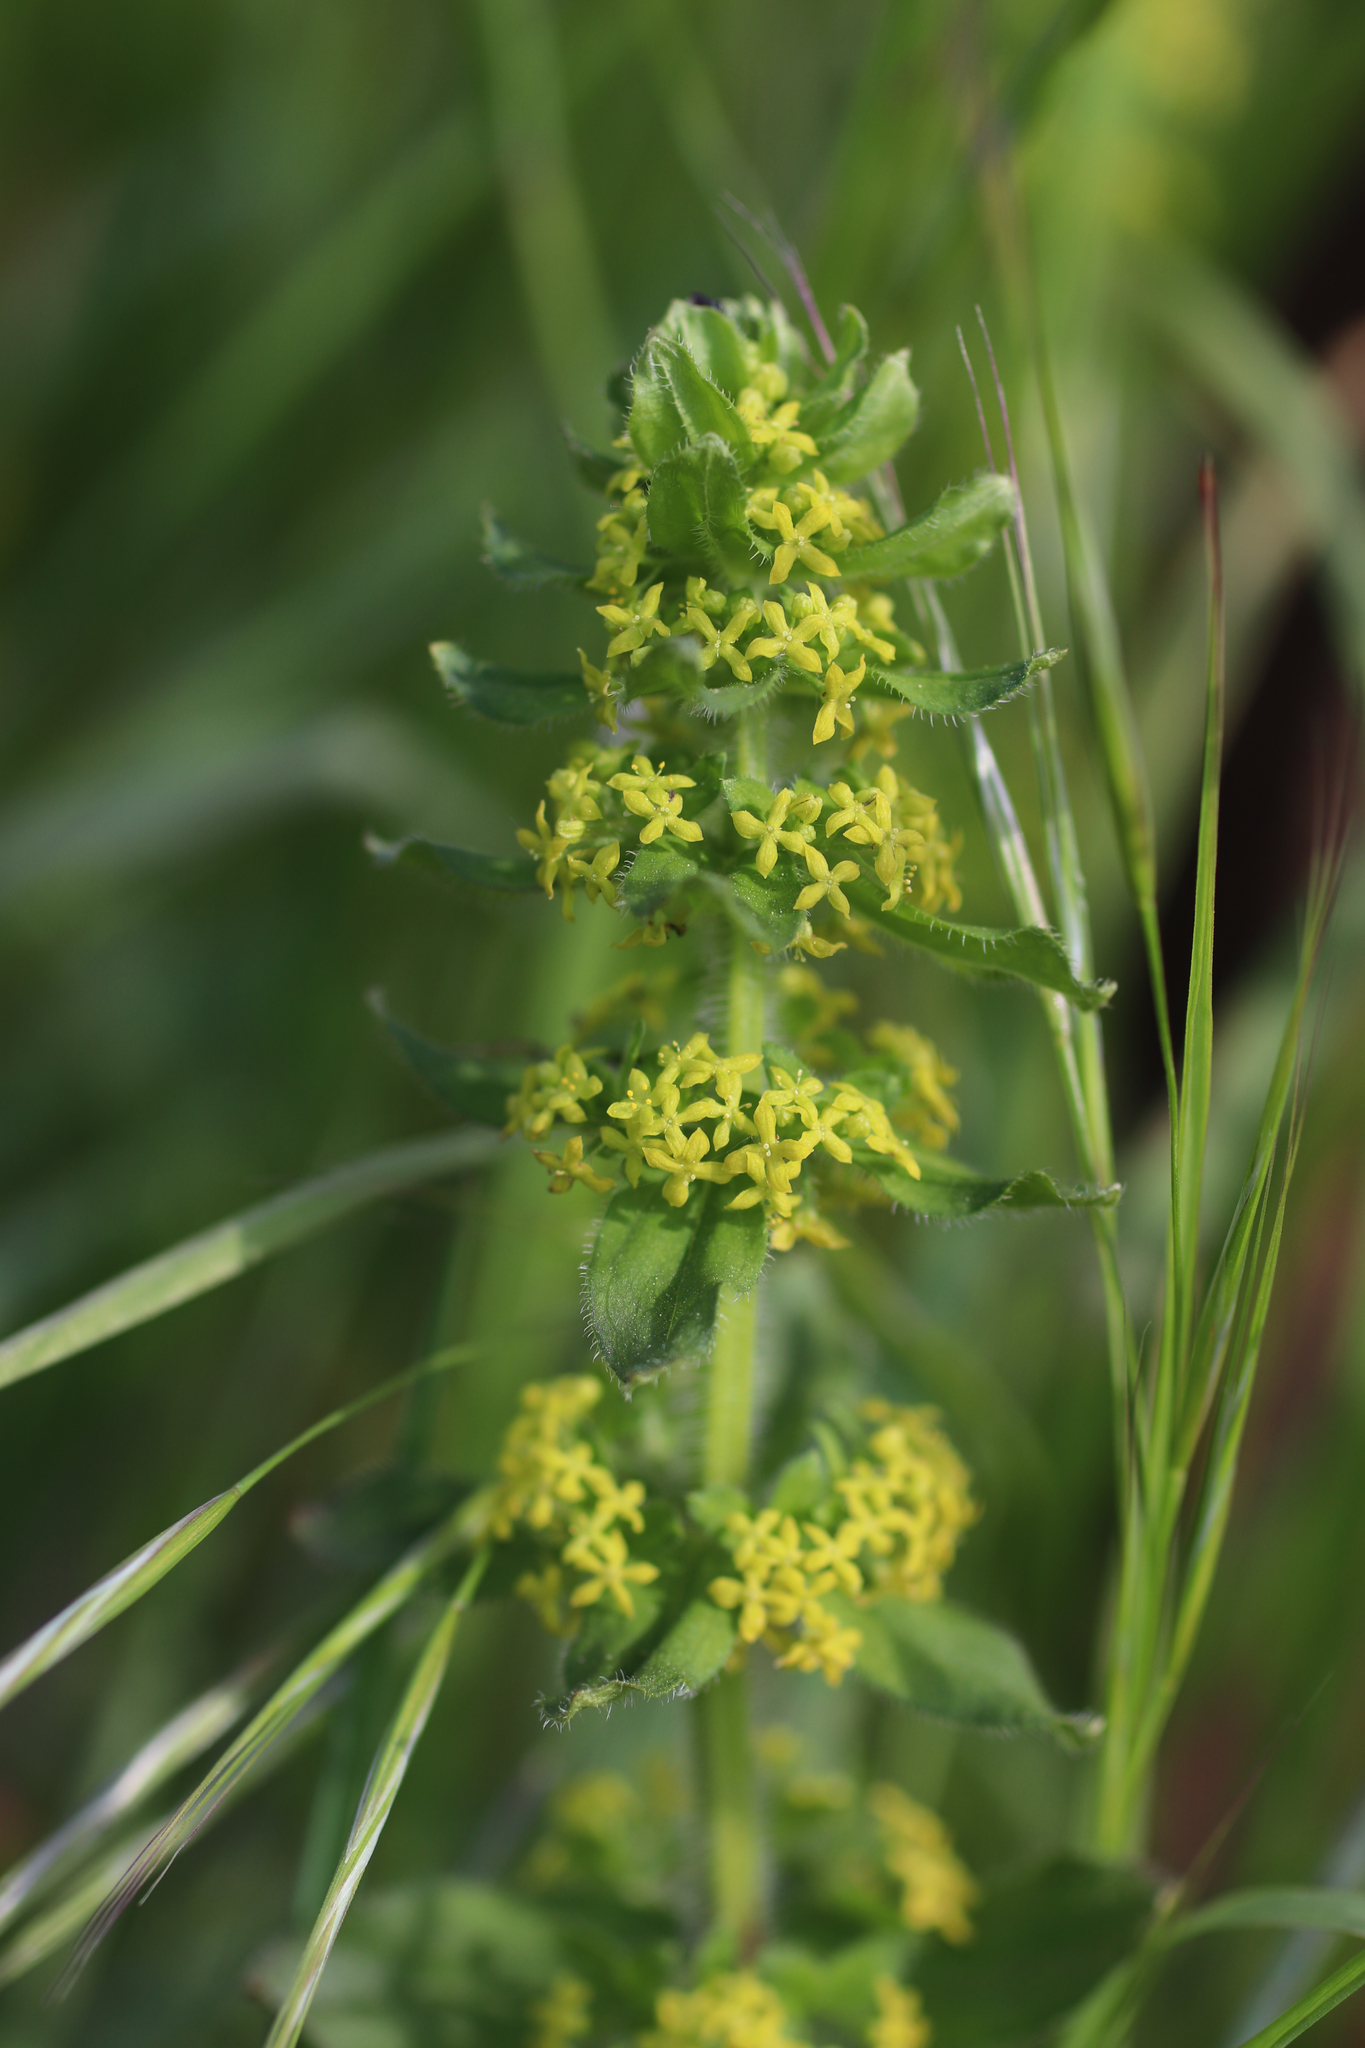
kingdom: Plantae
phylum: Tracheophyta
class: Magnoliopsida
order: Gentianales
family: Rubiaceae
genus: Cruciata
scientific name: Cruciata laevipes
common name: Crosswort
